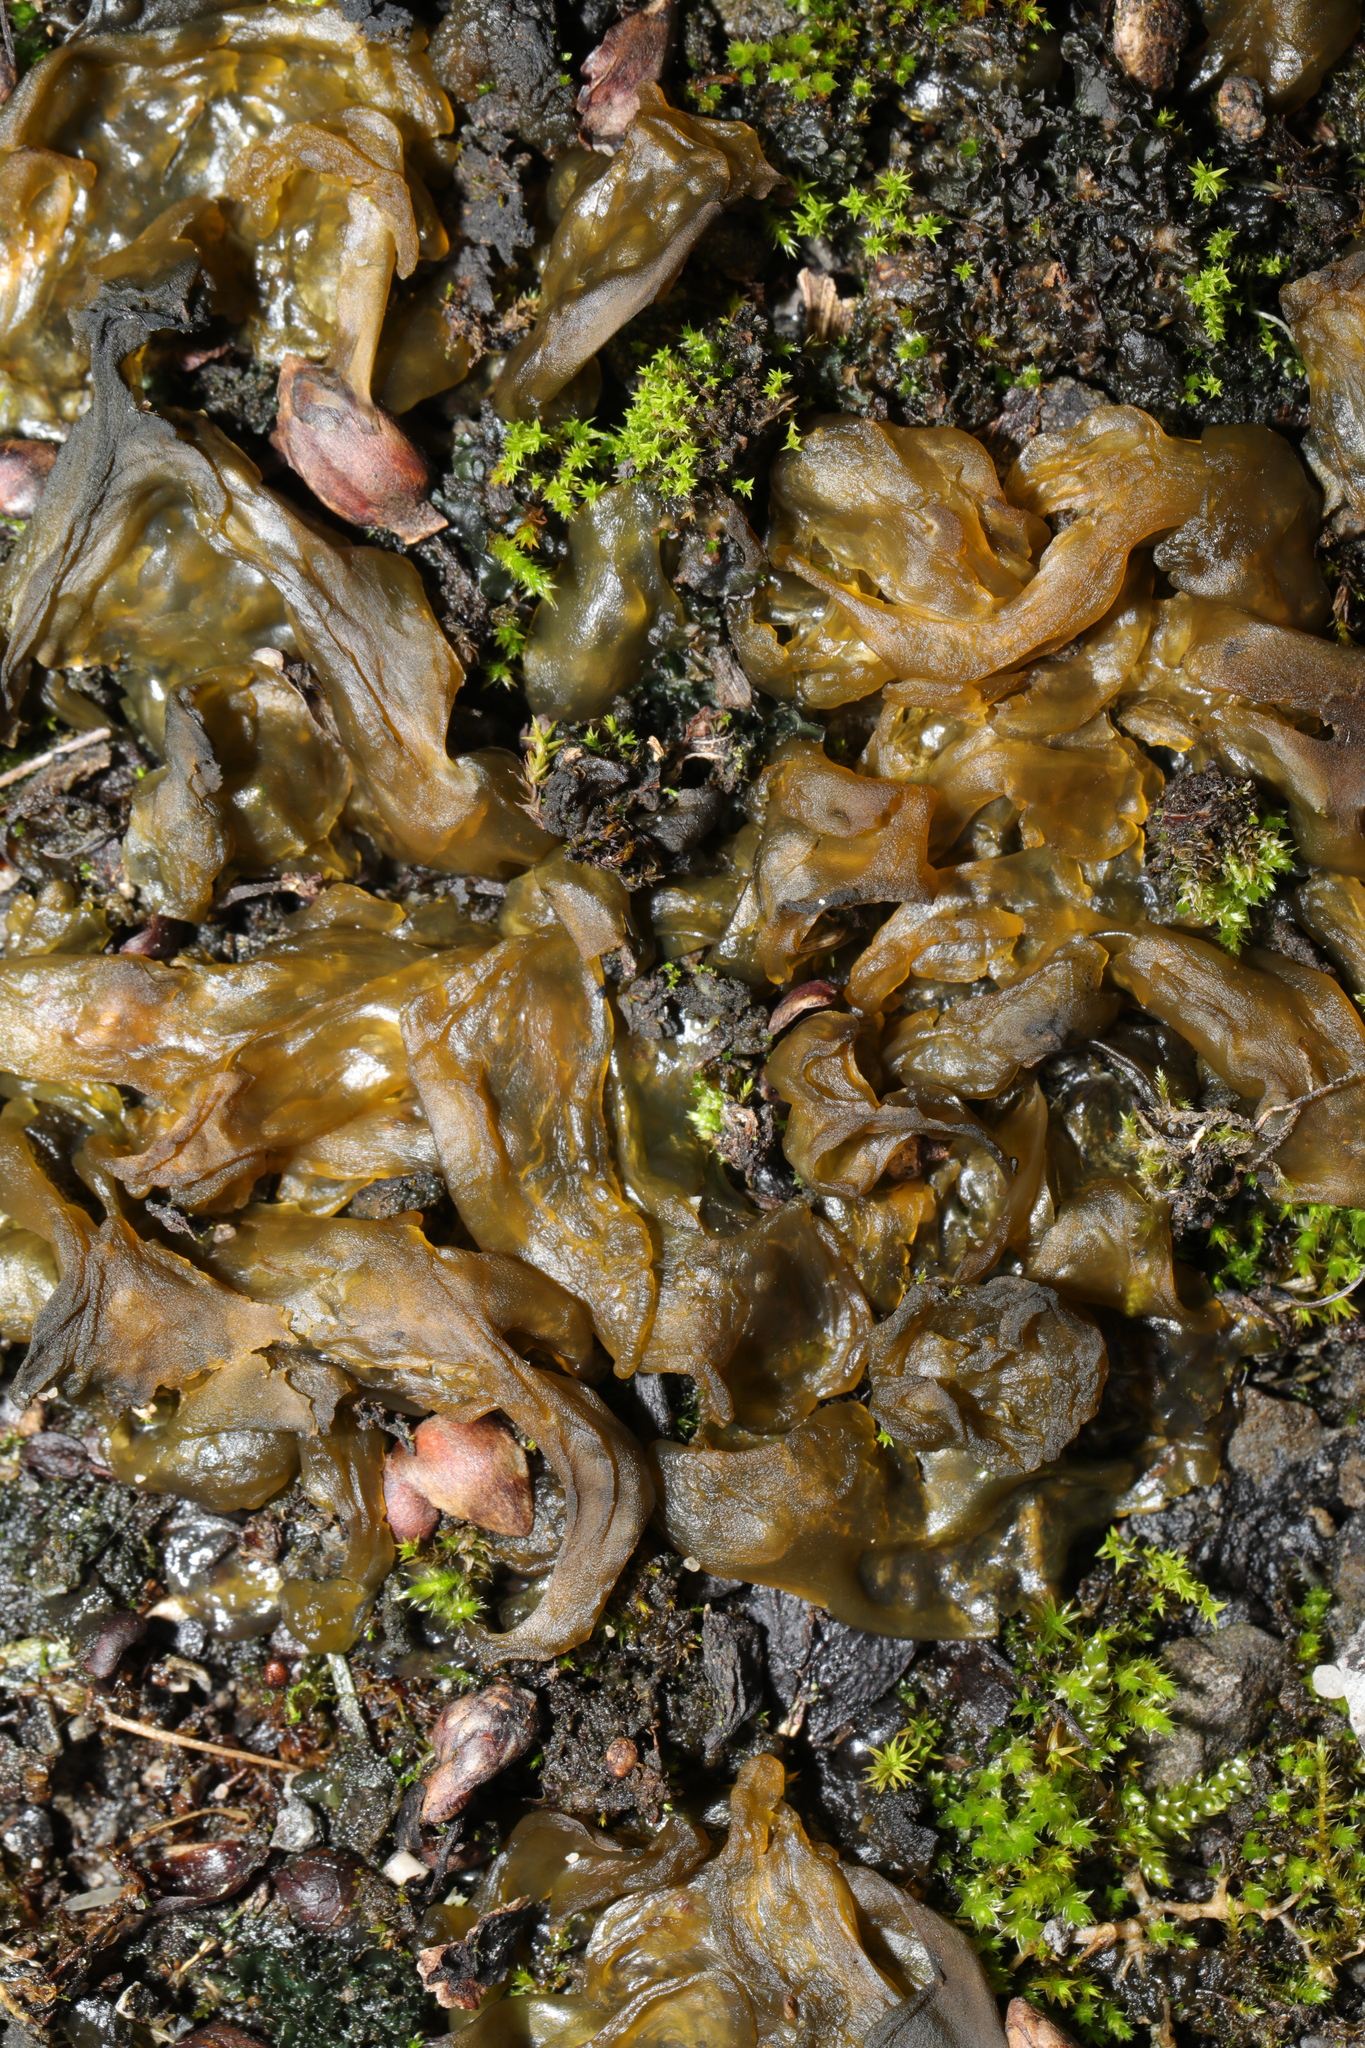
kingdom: Bacteria
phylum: Cyanobacteria
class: Cyanobacteriia
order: Cyanobacteriales
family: Nostocaceae
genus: Nostoc
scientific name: Nostoc commune
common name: Star jelly
